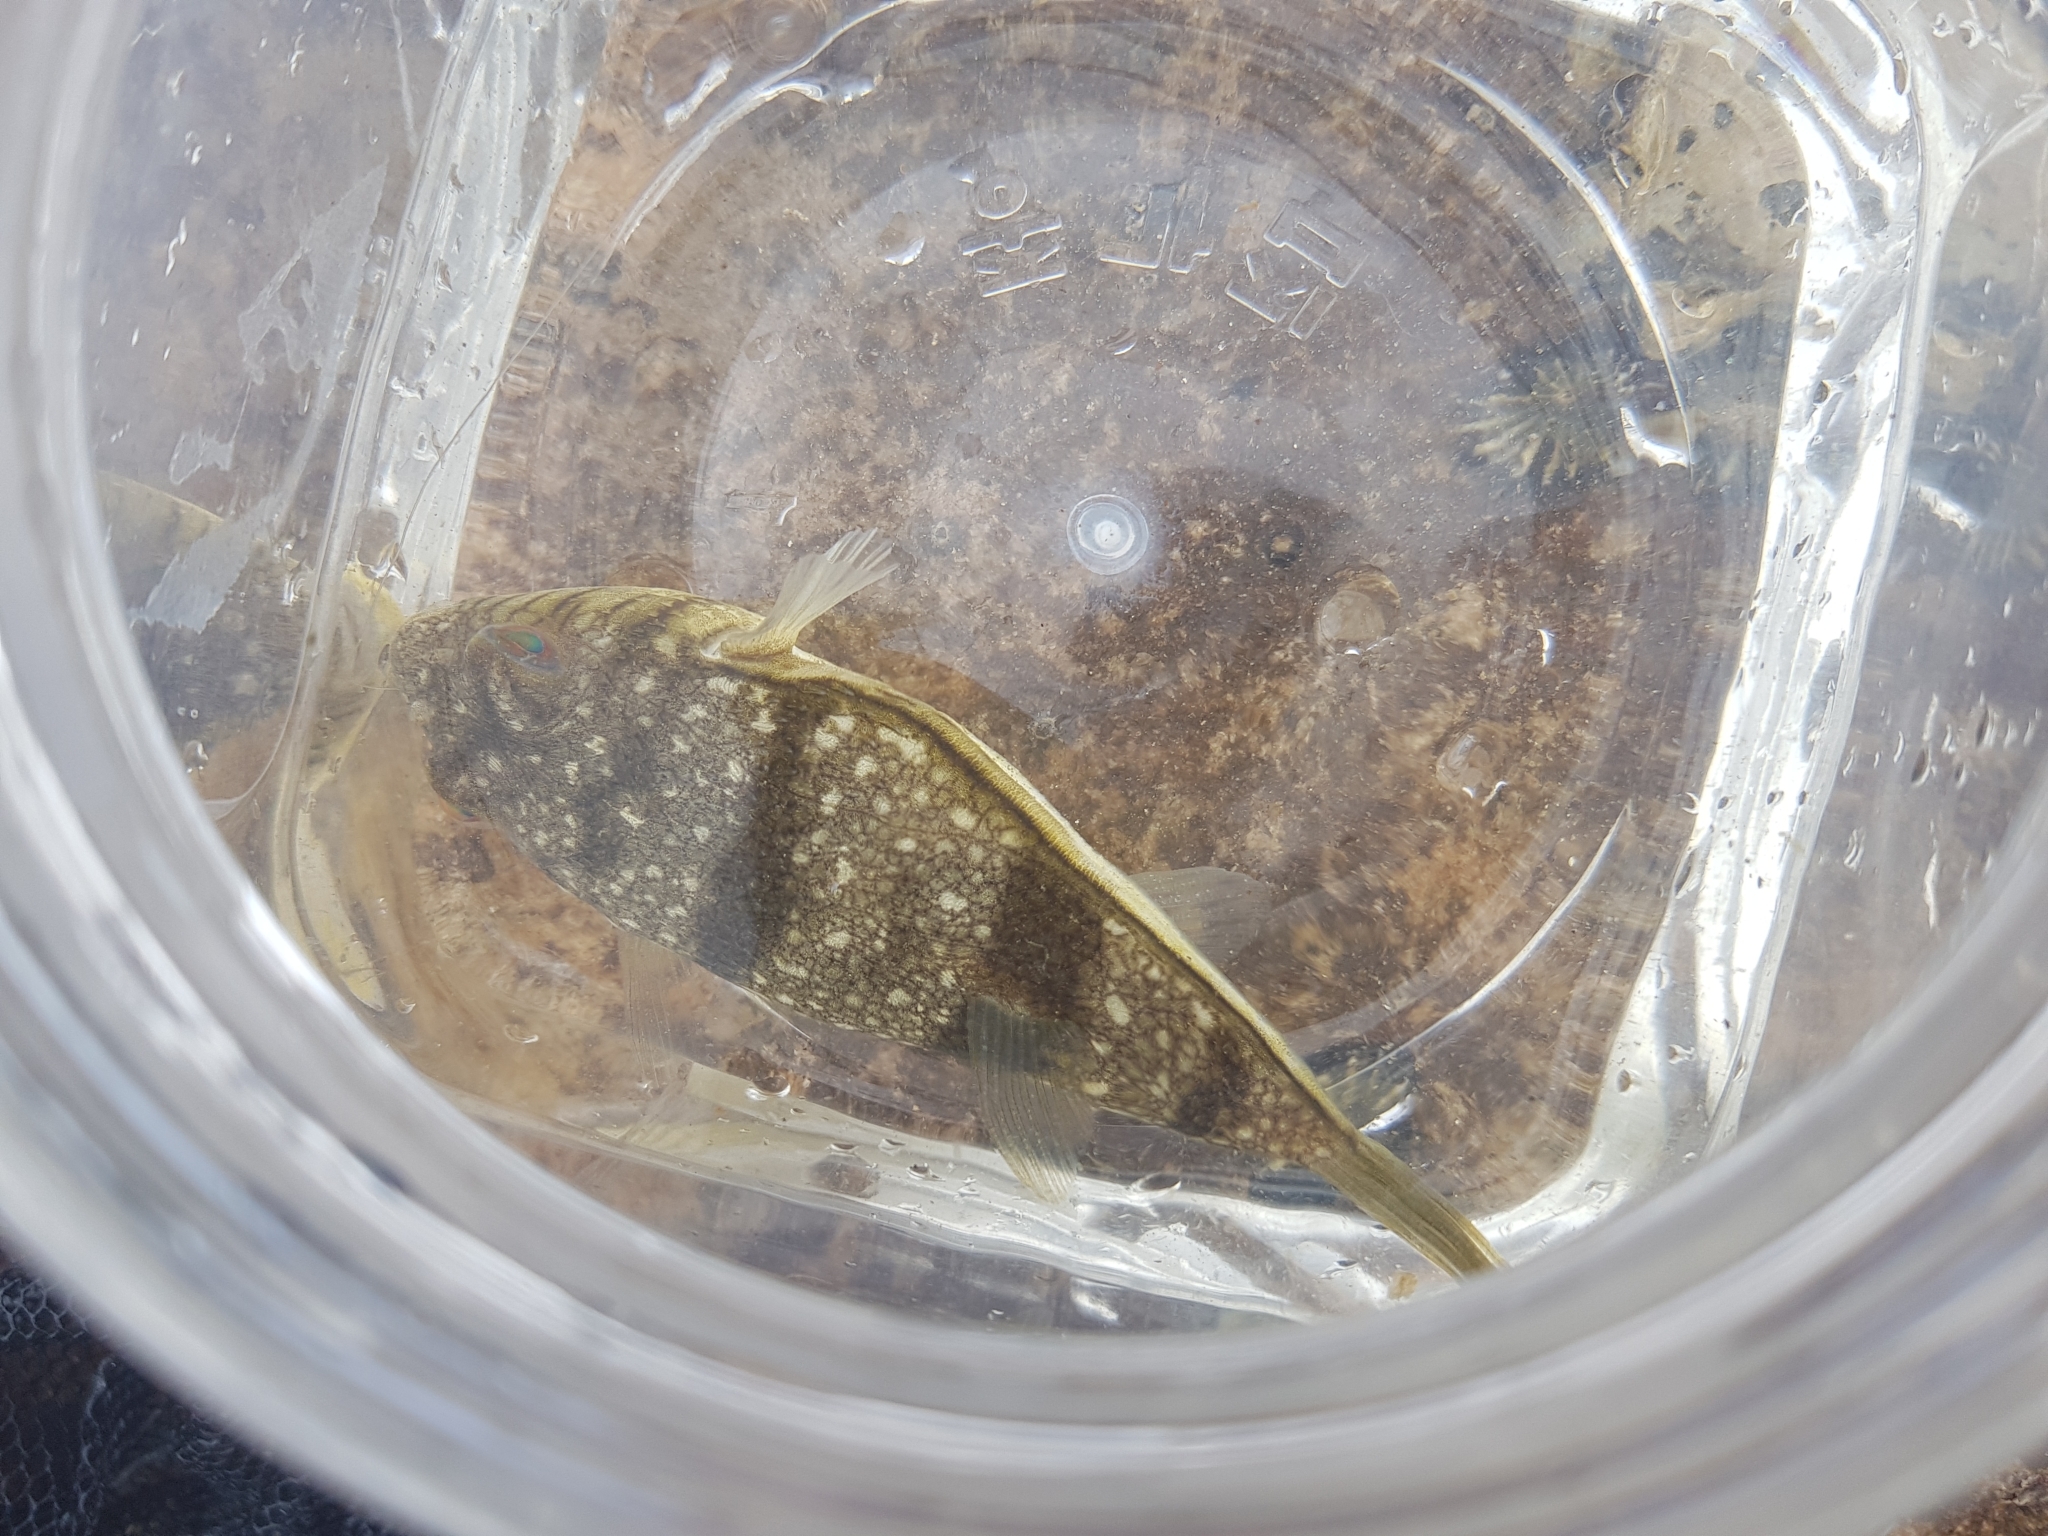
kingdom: Animalia
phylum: Chordata
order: Tetraodontiformes
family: Tetraodontidae
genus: Torquigener
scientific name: Torquigener pleurogramma
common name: Banded toadfish
